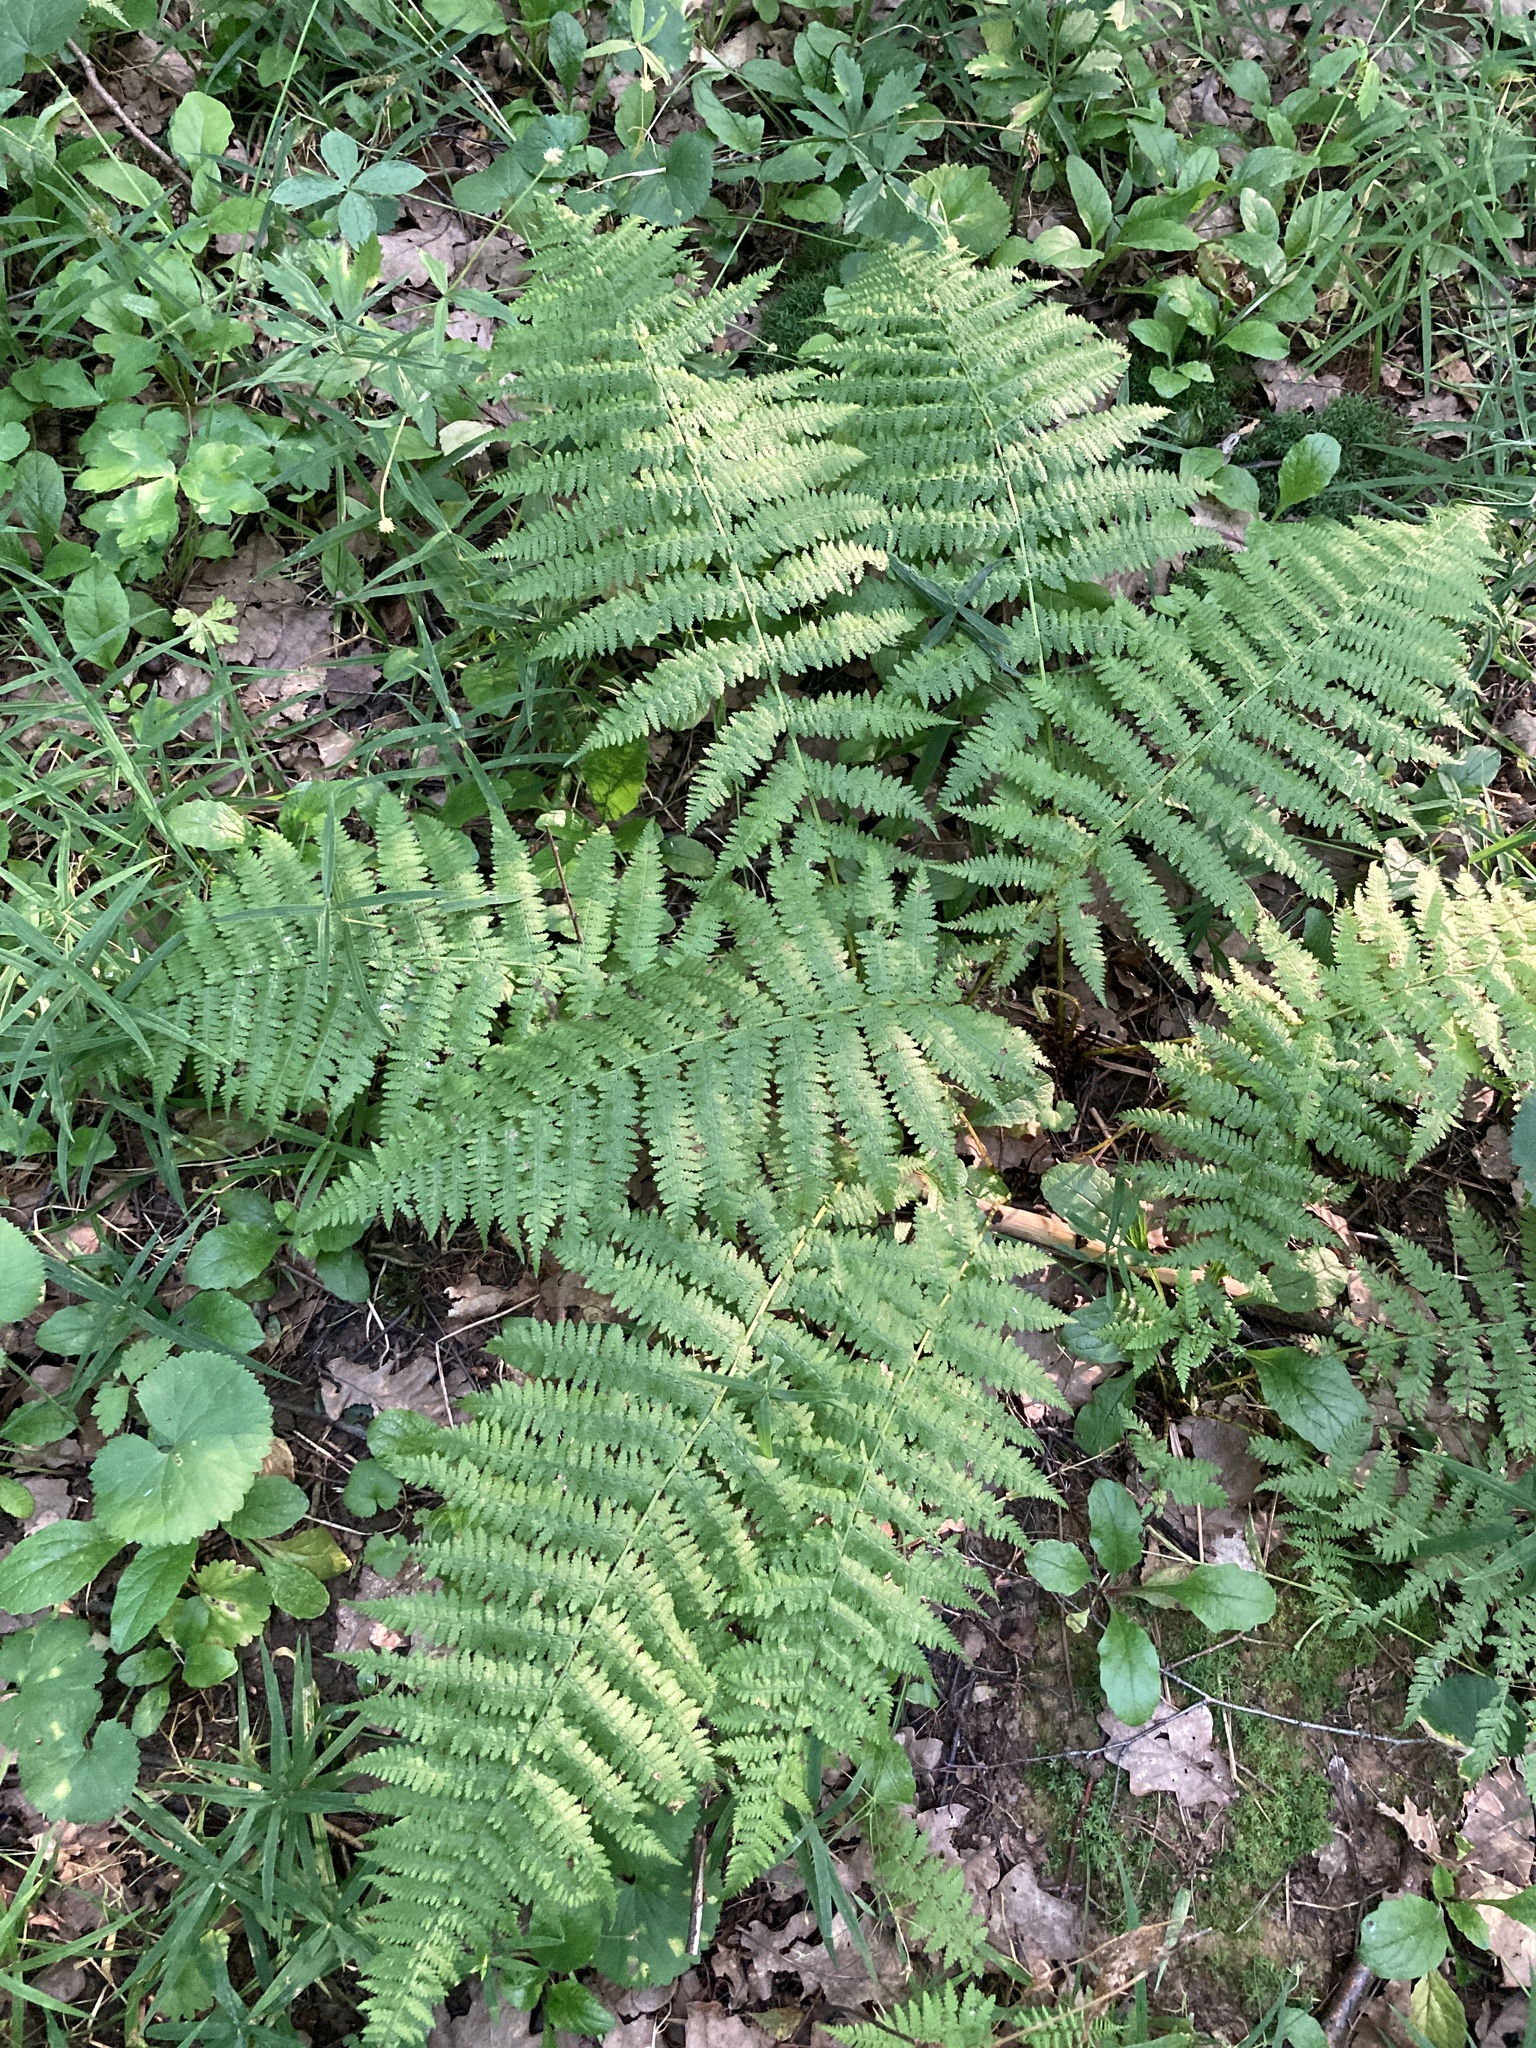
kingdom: Plantae
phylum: Tracheophyta
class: Polypodiopsida
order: Polypodiales
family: Athyriaceae
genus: Athyrium
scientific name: Athyrium filix-femina
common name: Lady fern
